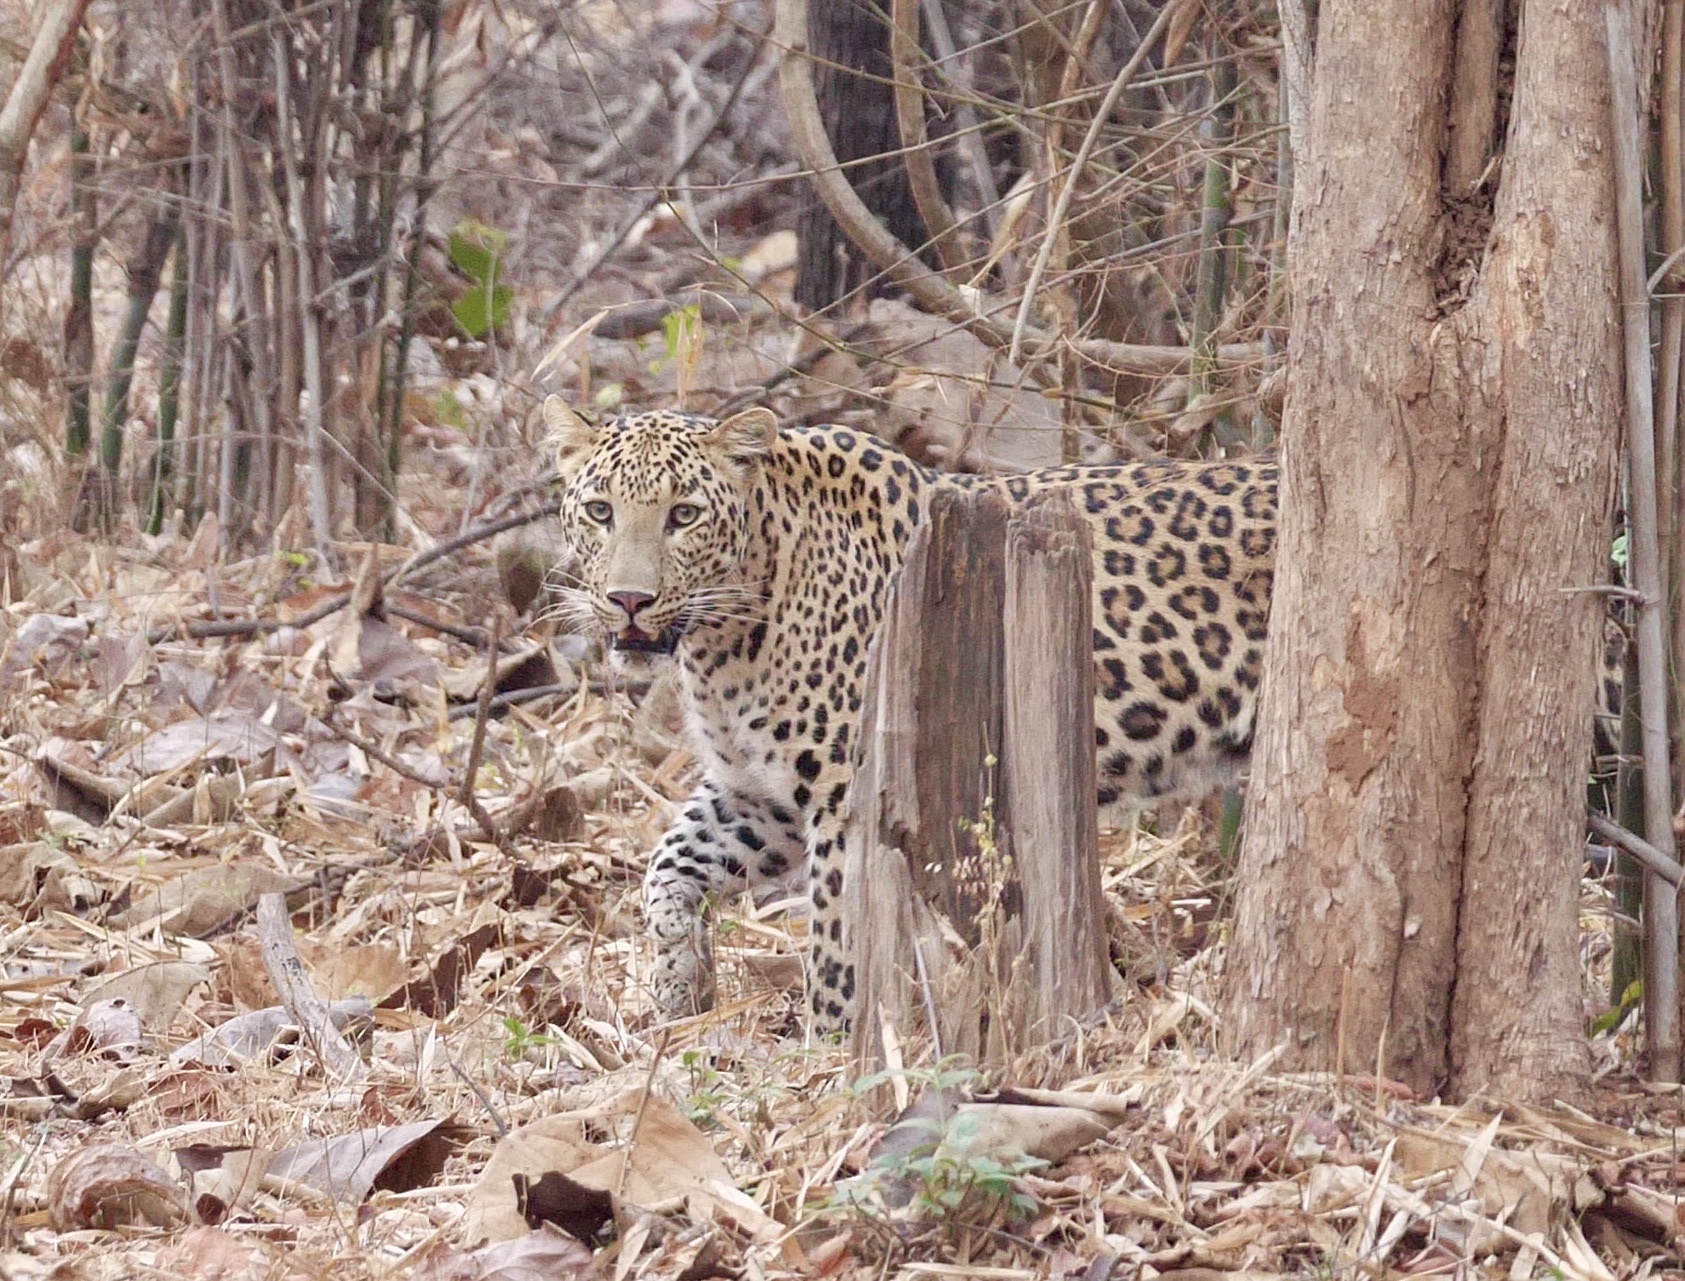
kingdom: Animalia
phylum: Chordata
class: Mammalia
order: Carnivora
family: Felidae
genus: Panthera
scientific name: Panthera pardus
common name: Leopard
